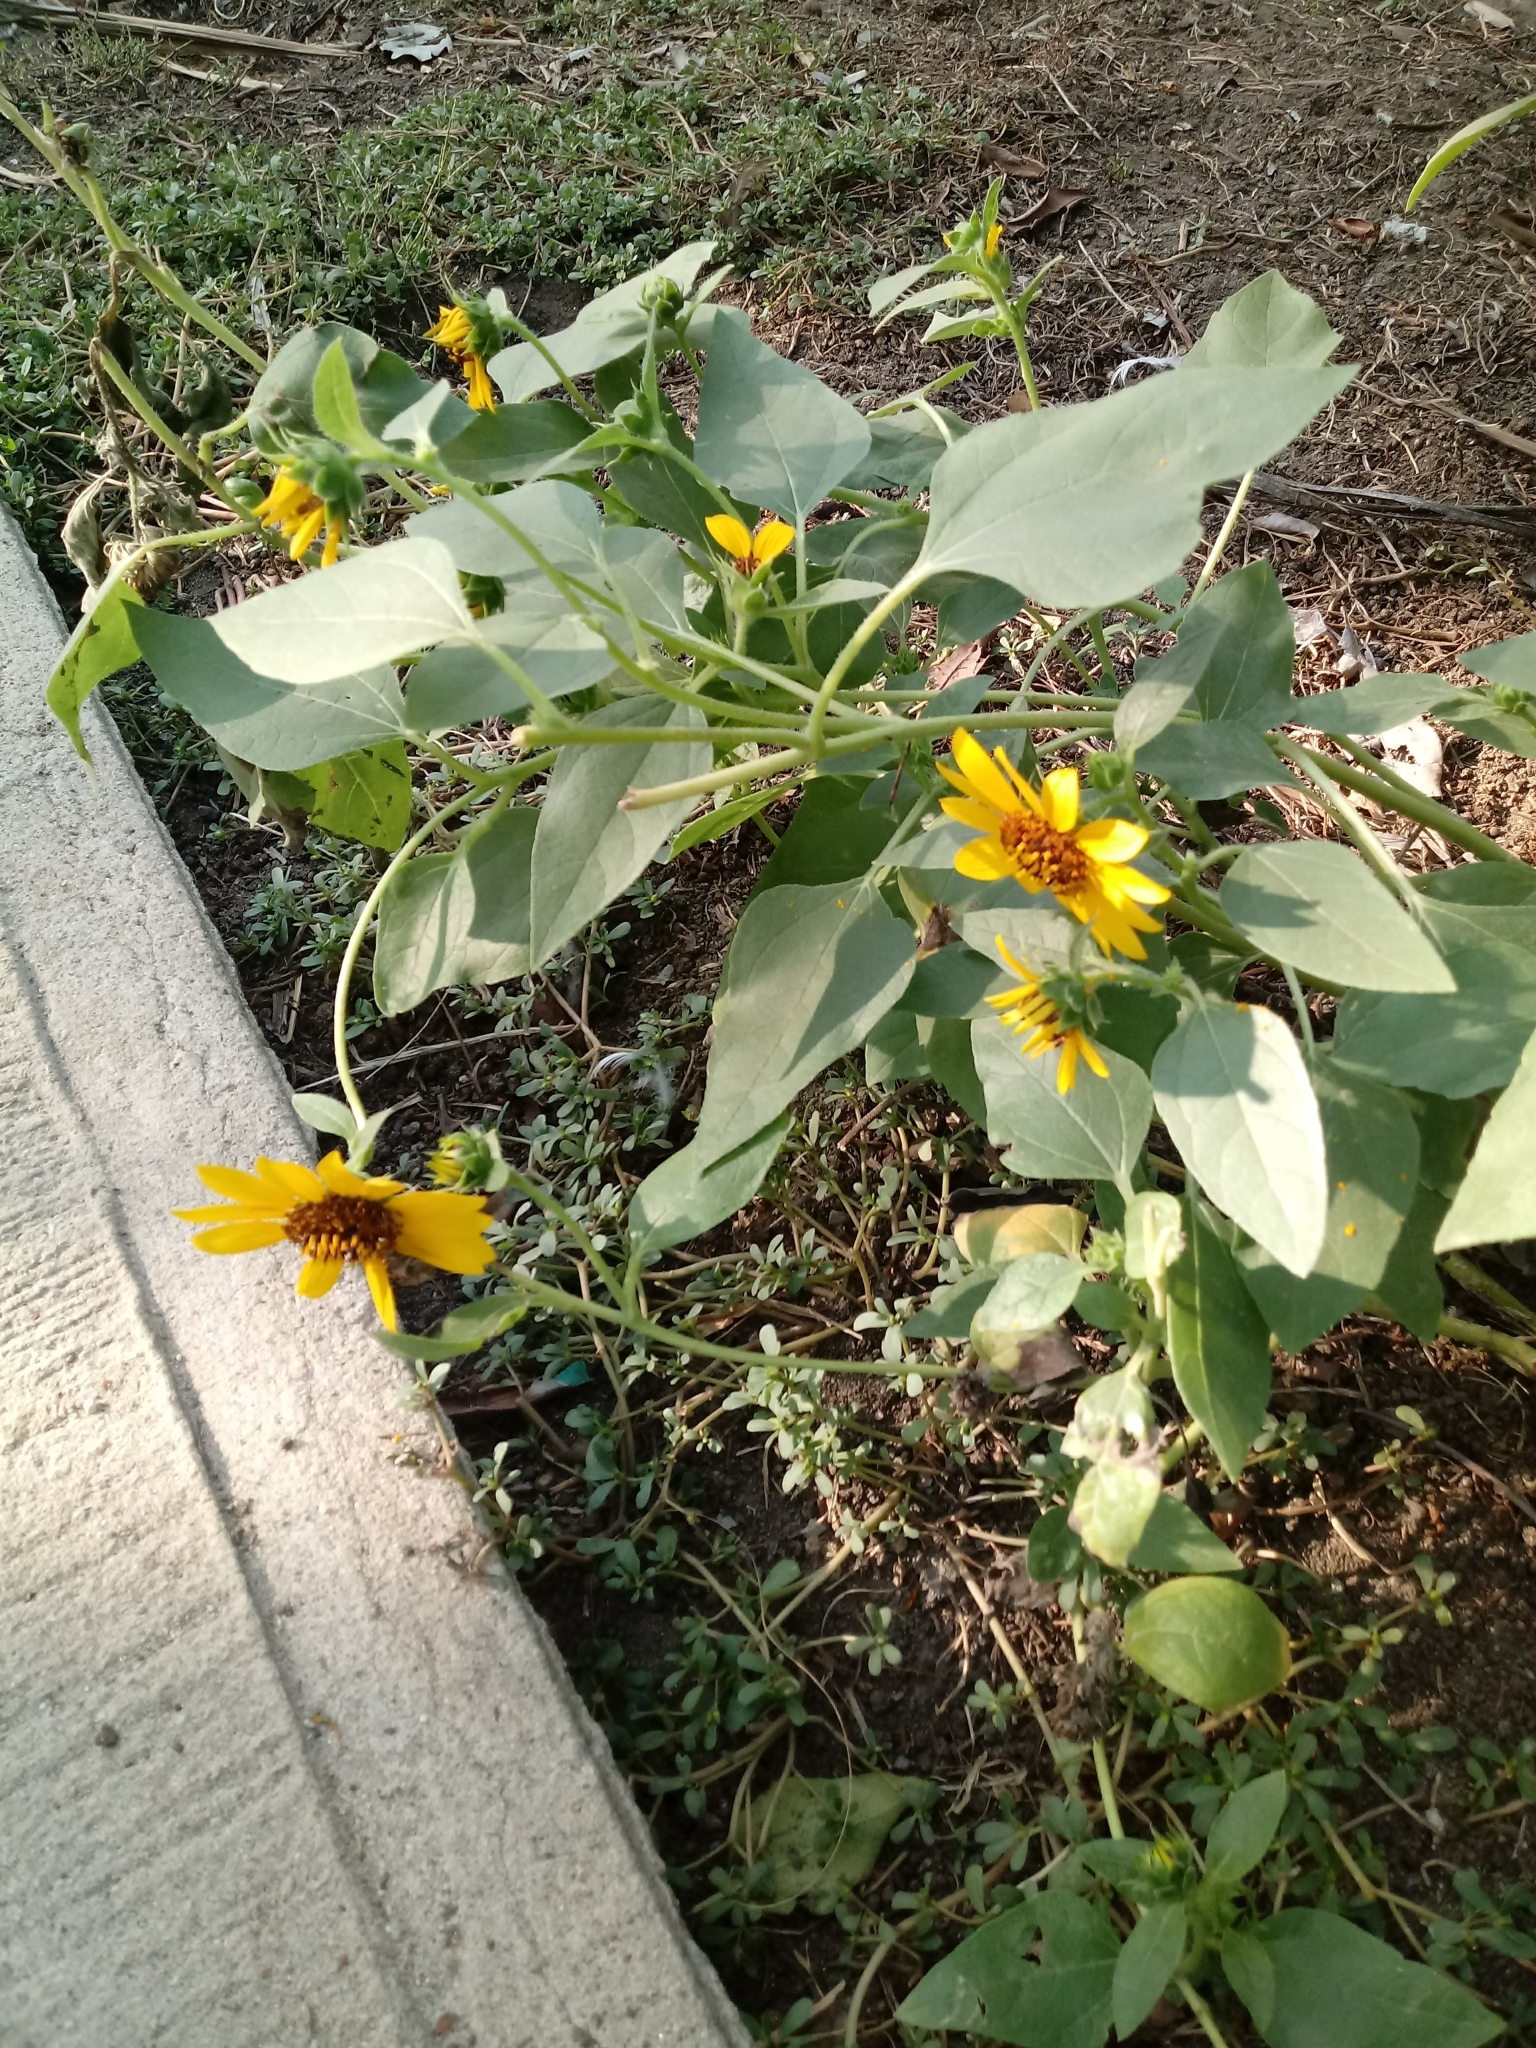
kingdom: Plantae
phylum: Tracheophyta
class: Magnoliopsida
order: Asterales
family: Asteraceae
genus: Helianthus
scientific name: Helianthus annuus
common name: Sunflower
